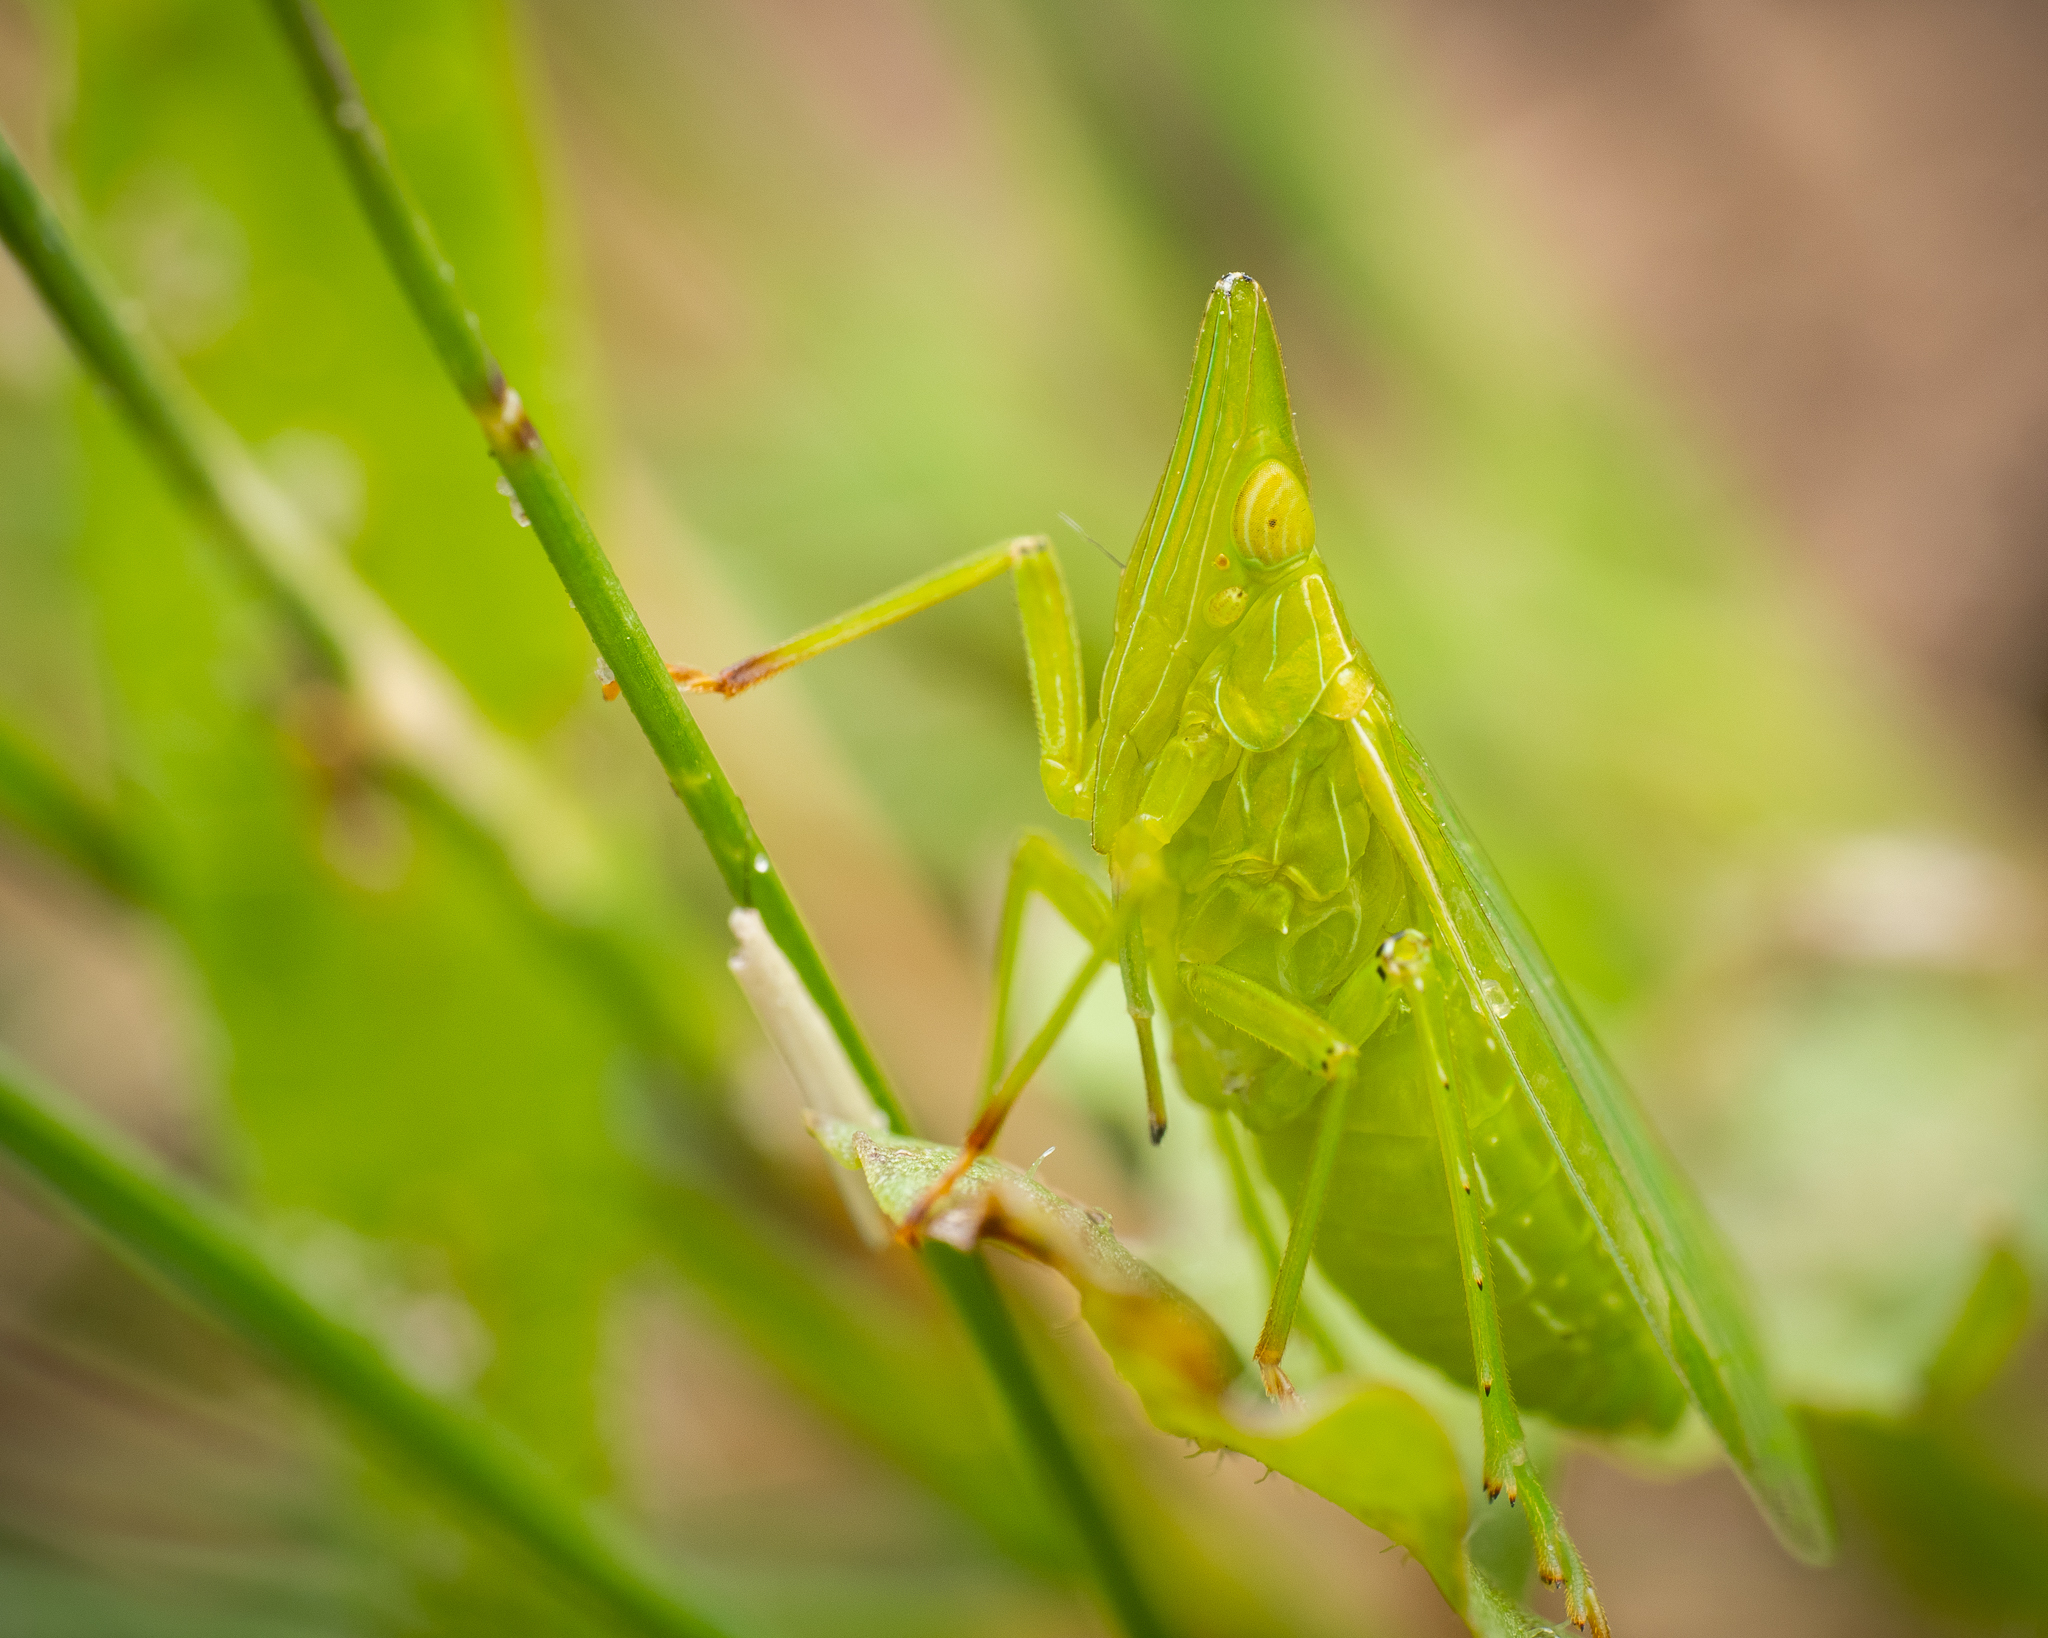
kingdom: Animalia
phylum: Arthropoda
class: Insecta
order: Hemiptera
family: Dictyopharidae
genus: Dictyophara
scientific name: Dictyophara europaea
